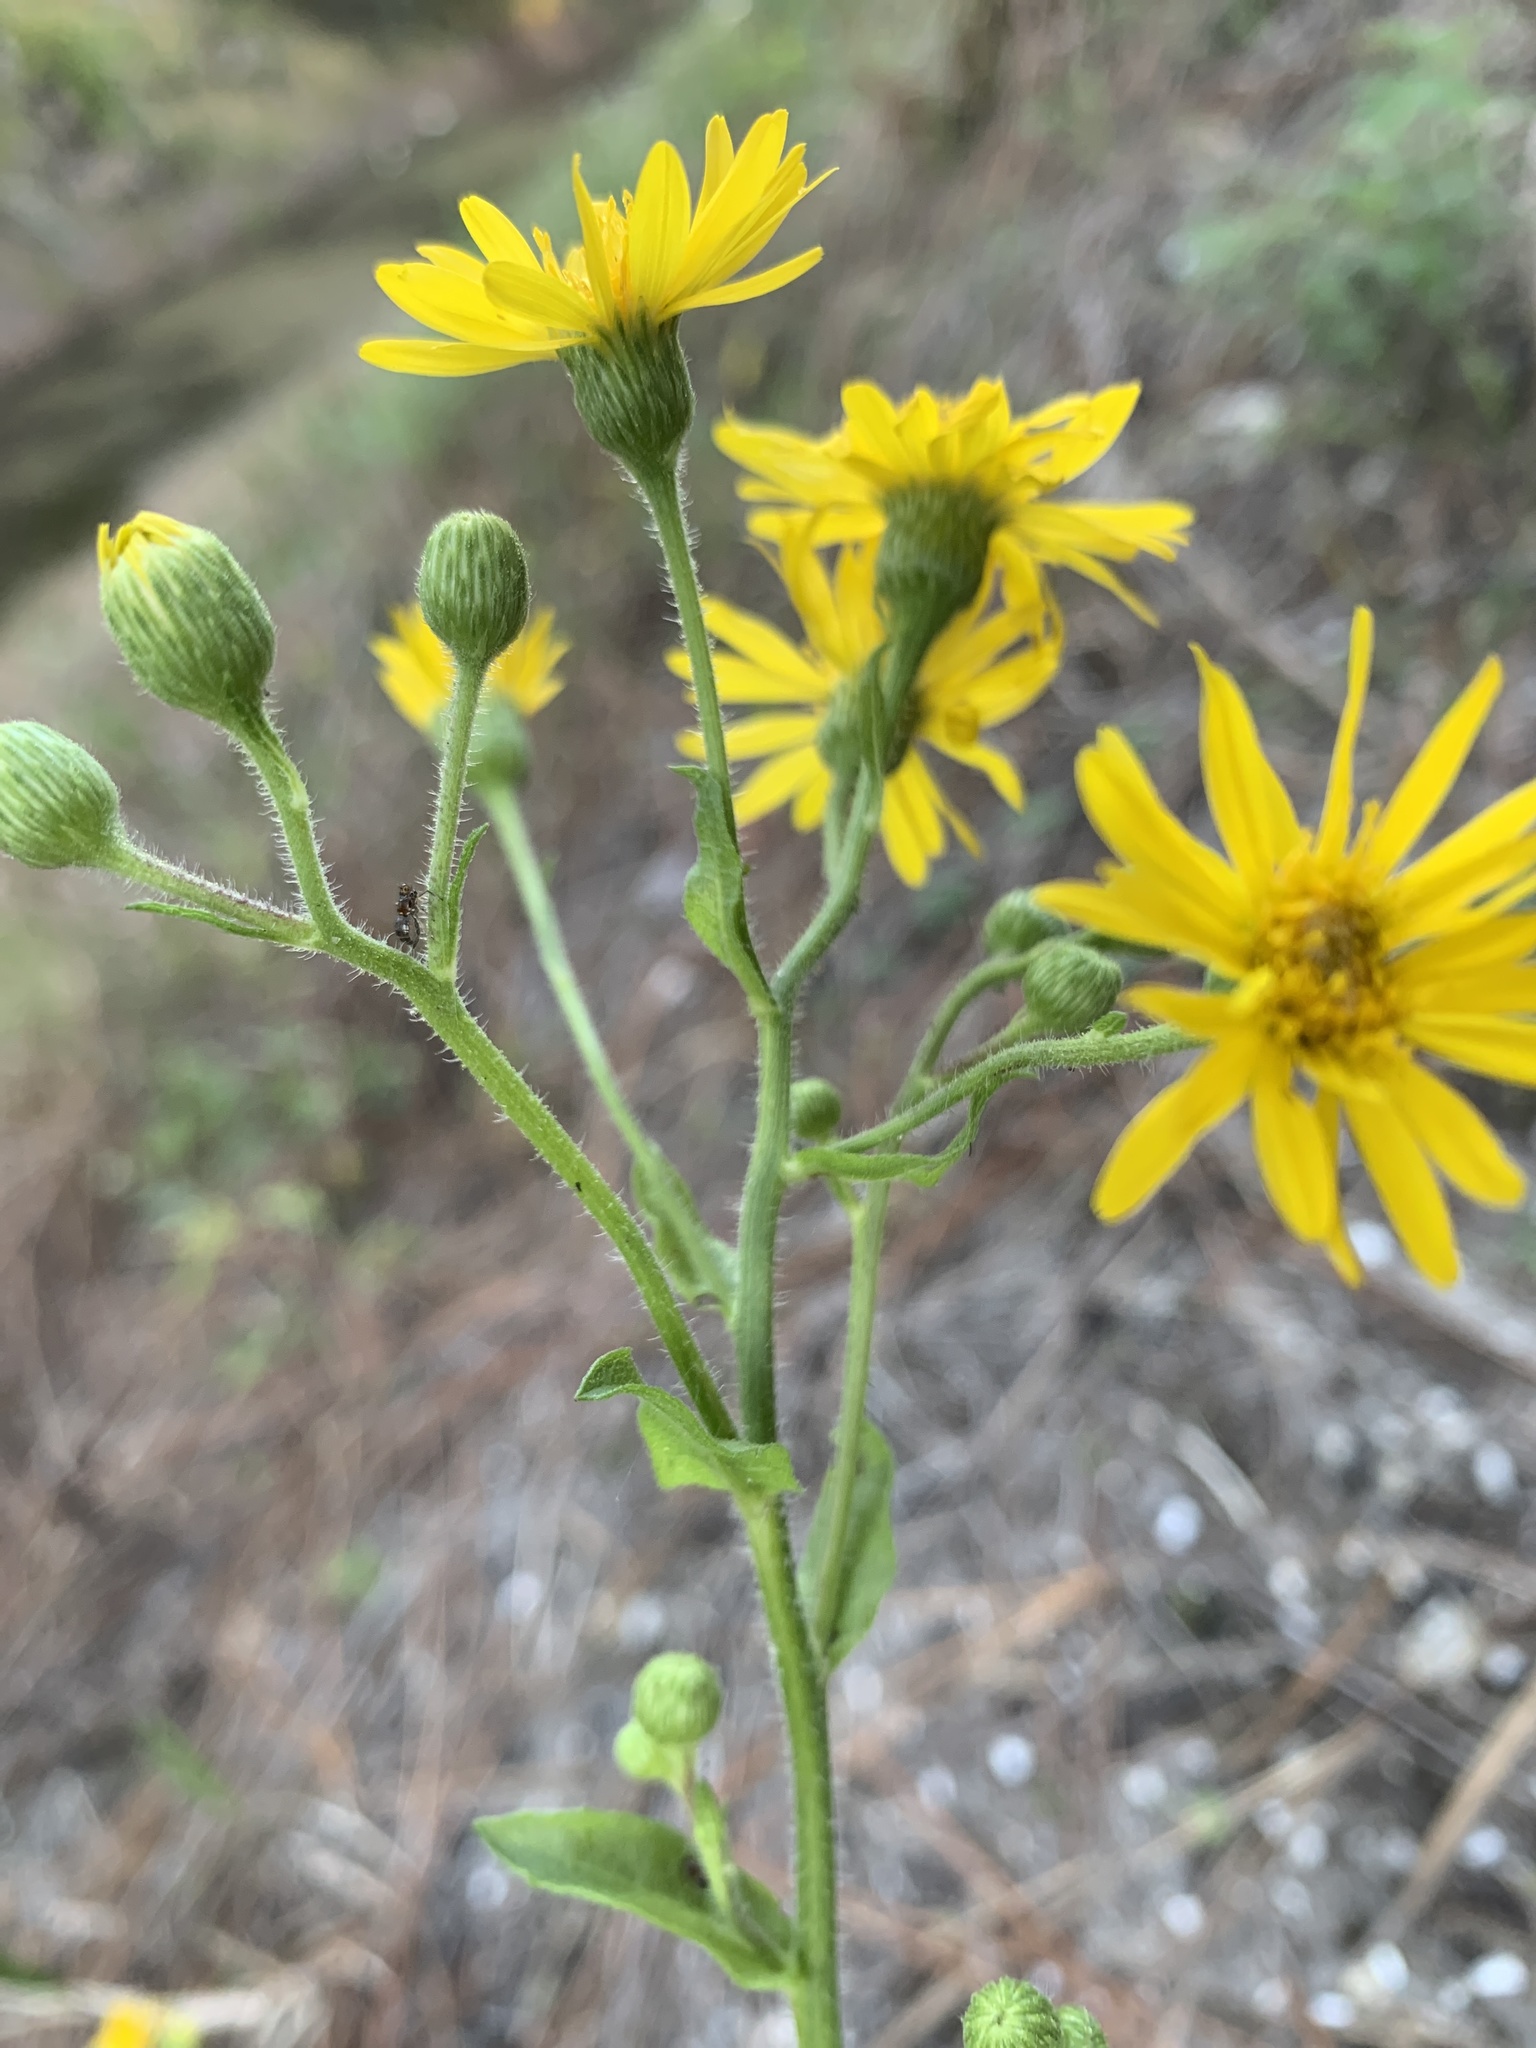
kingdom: Plantae
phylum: Tracheophyta
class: Magnoliopsida
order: Asterales
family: Asteraceae
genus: Heterotheca
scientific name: Heterotheca subaxillaris
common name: Camphorweed
